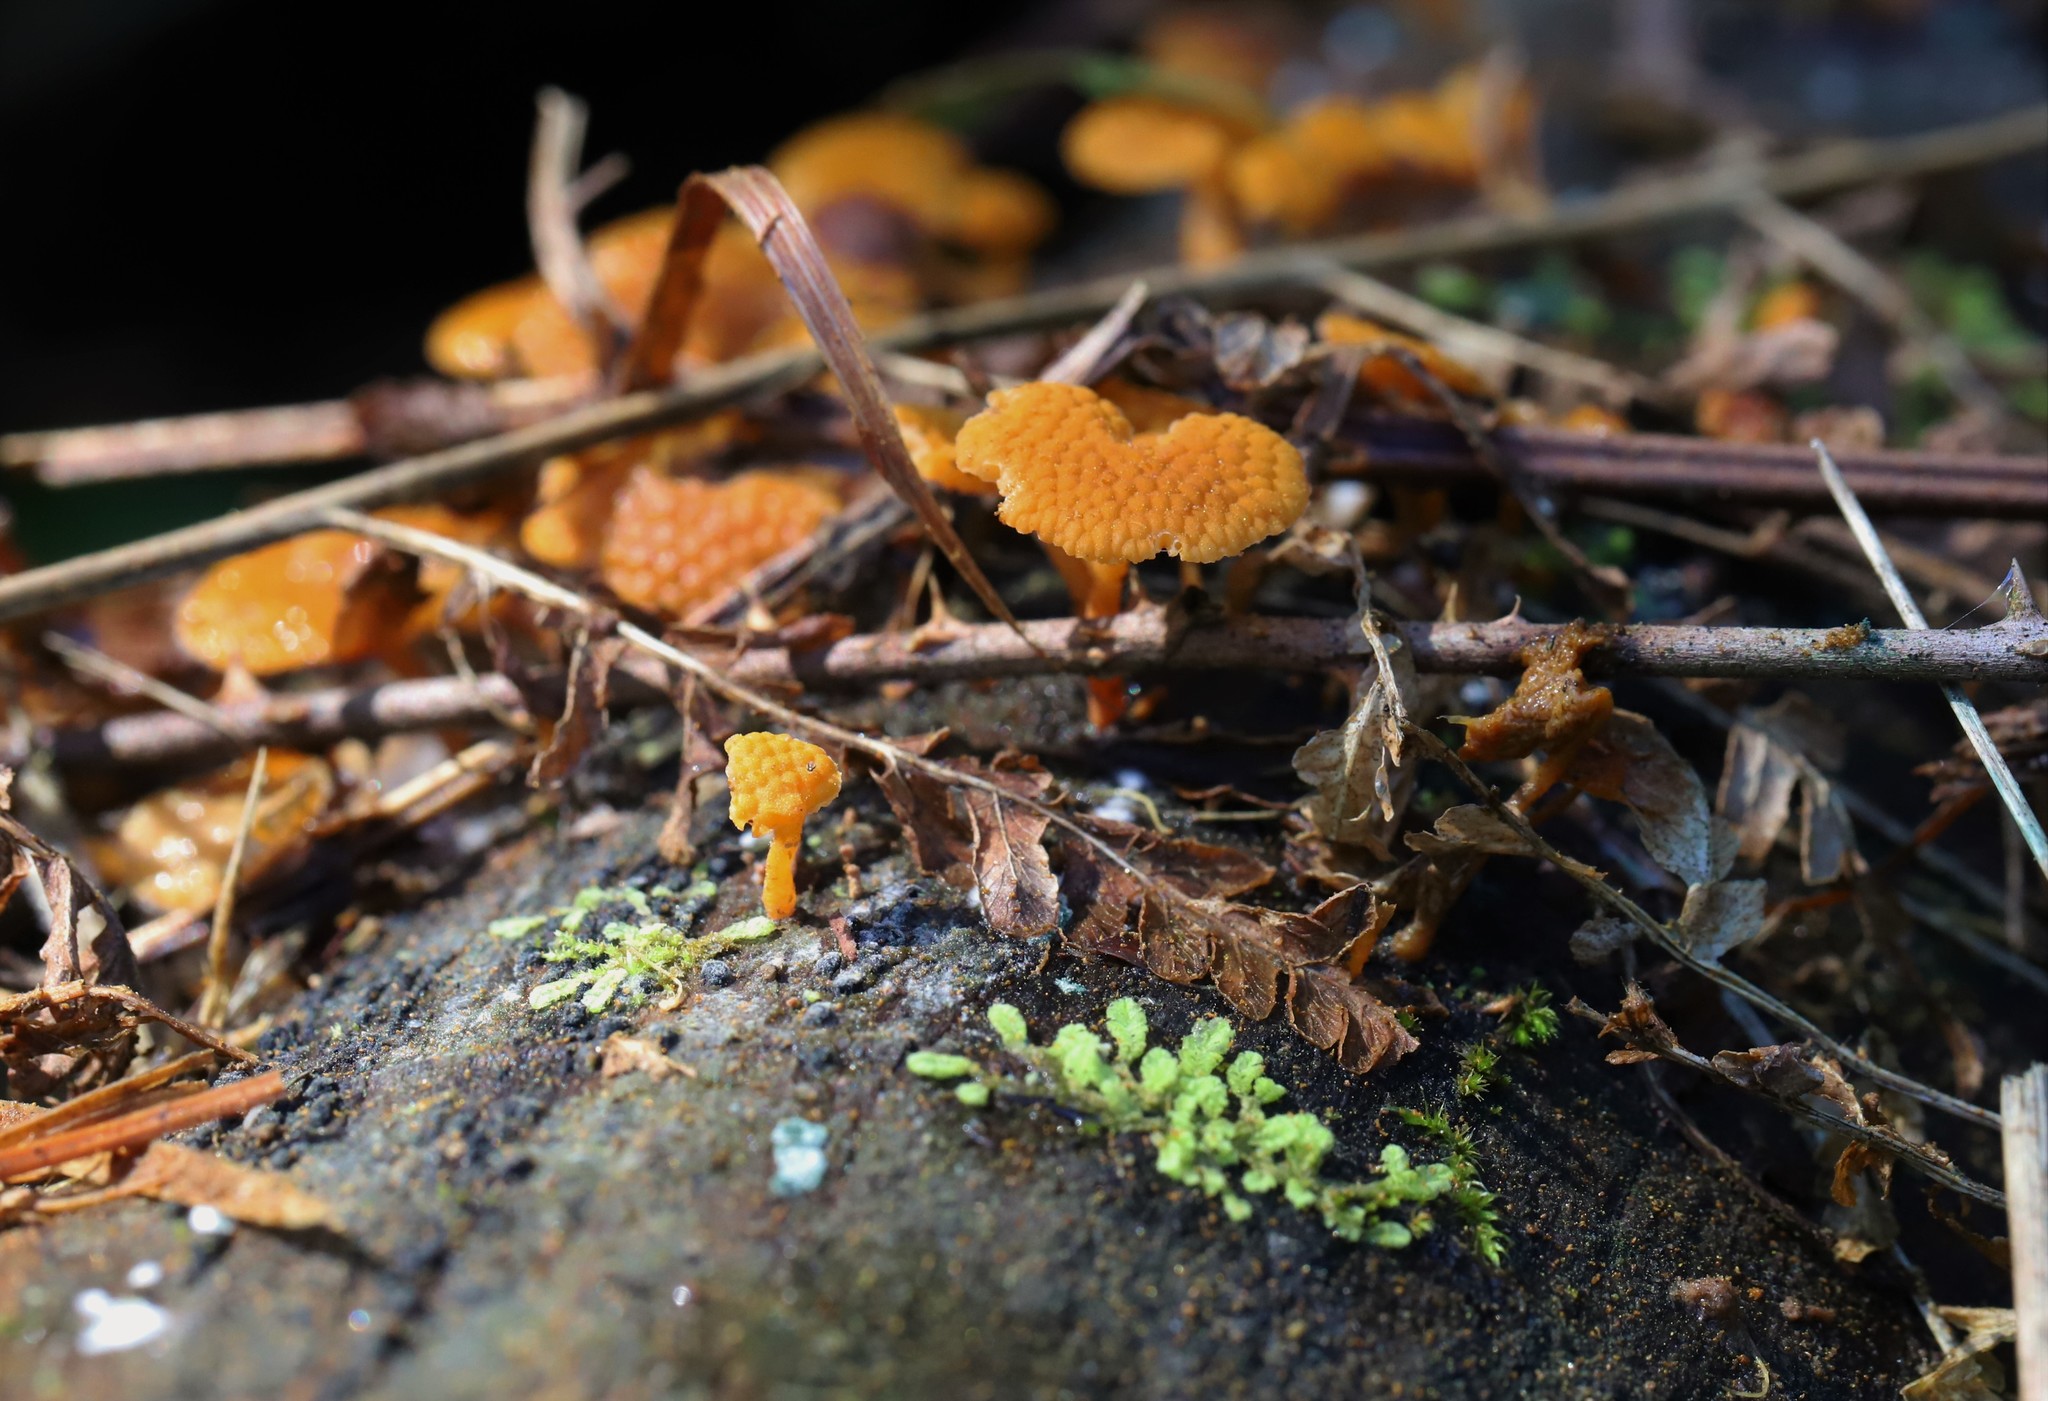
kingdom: Fungi
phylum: Basidiomycota
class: Agaricomycetes
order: Agaricales
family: Mycenaceae
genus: Favolaschia
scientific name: Favolaschia claudopus
